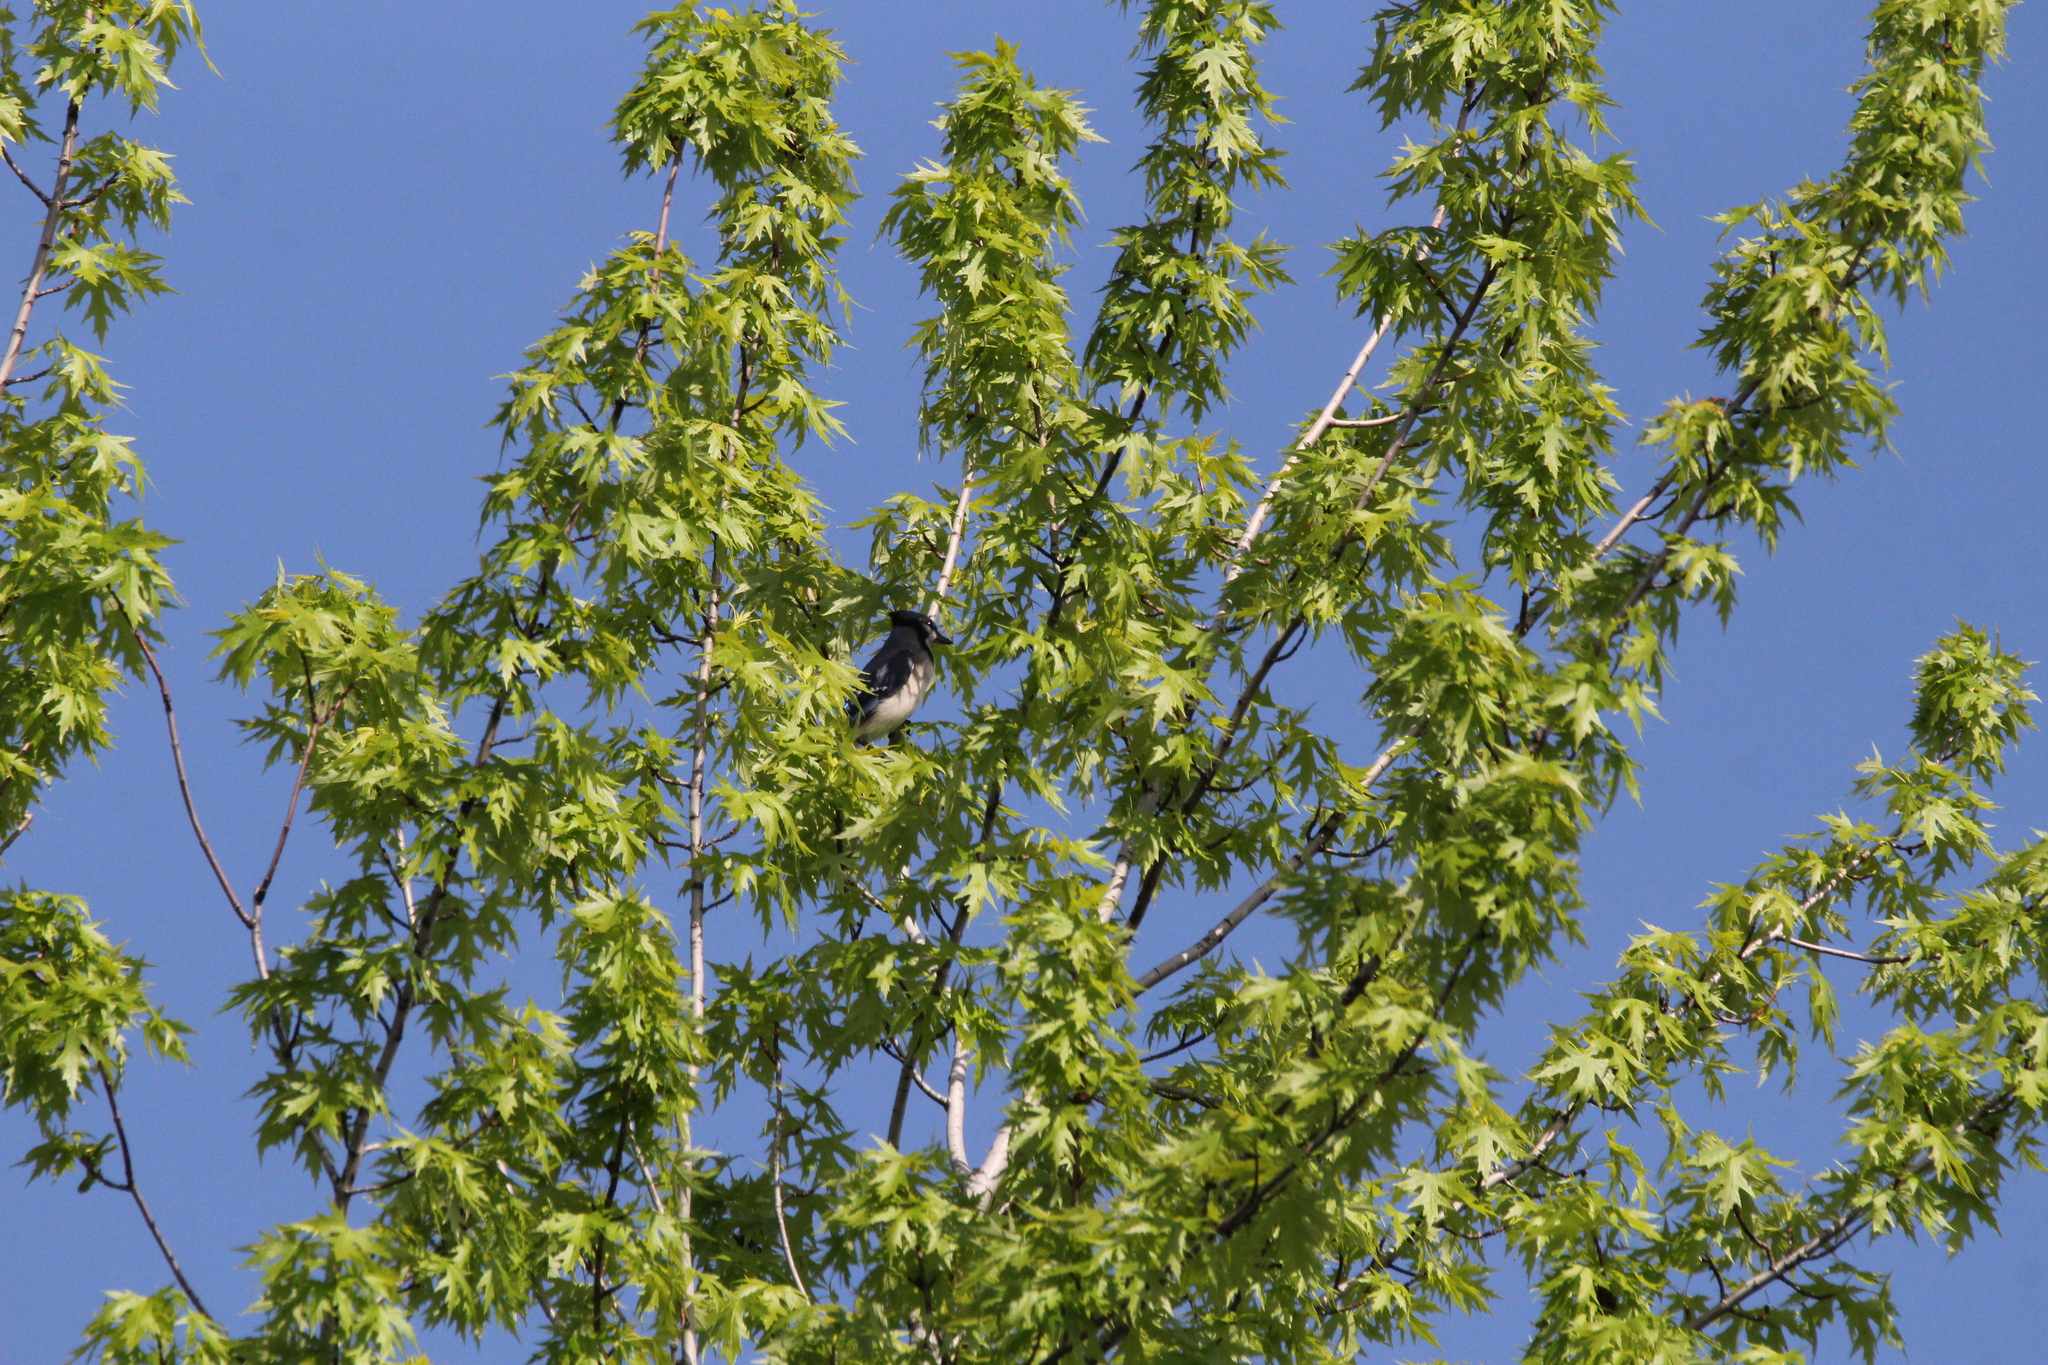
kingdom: Animalia
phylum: Chordata
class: Aves
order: Passeriformes
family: Corvidae
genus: Cyanocitta
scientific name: Cyanocitta cristata
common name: Blue jay
